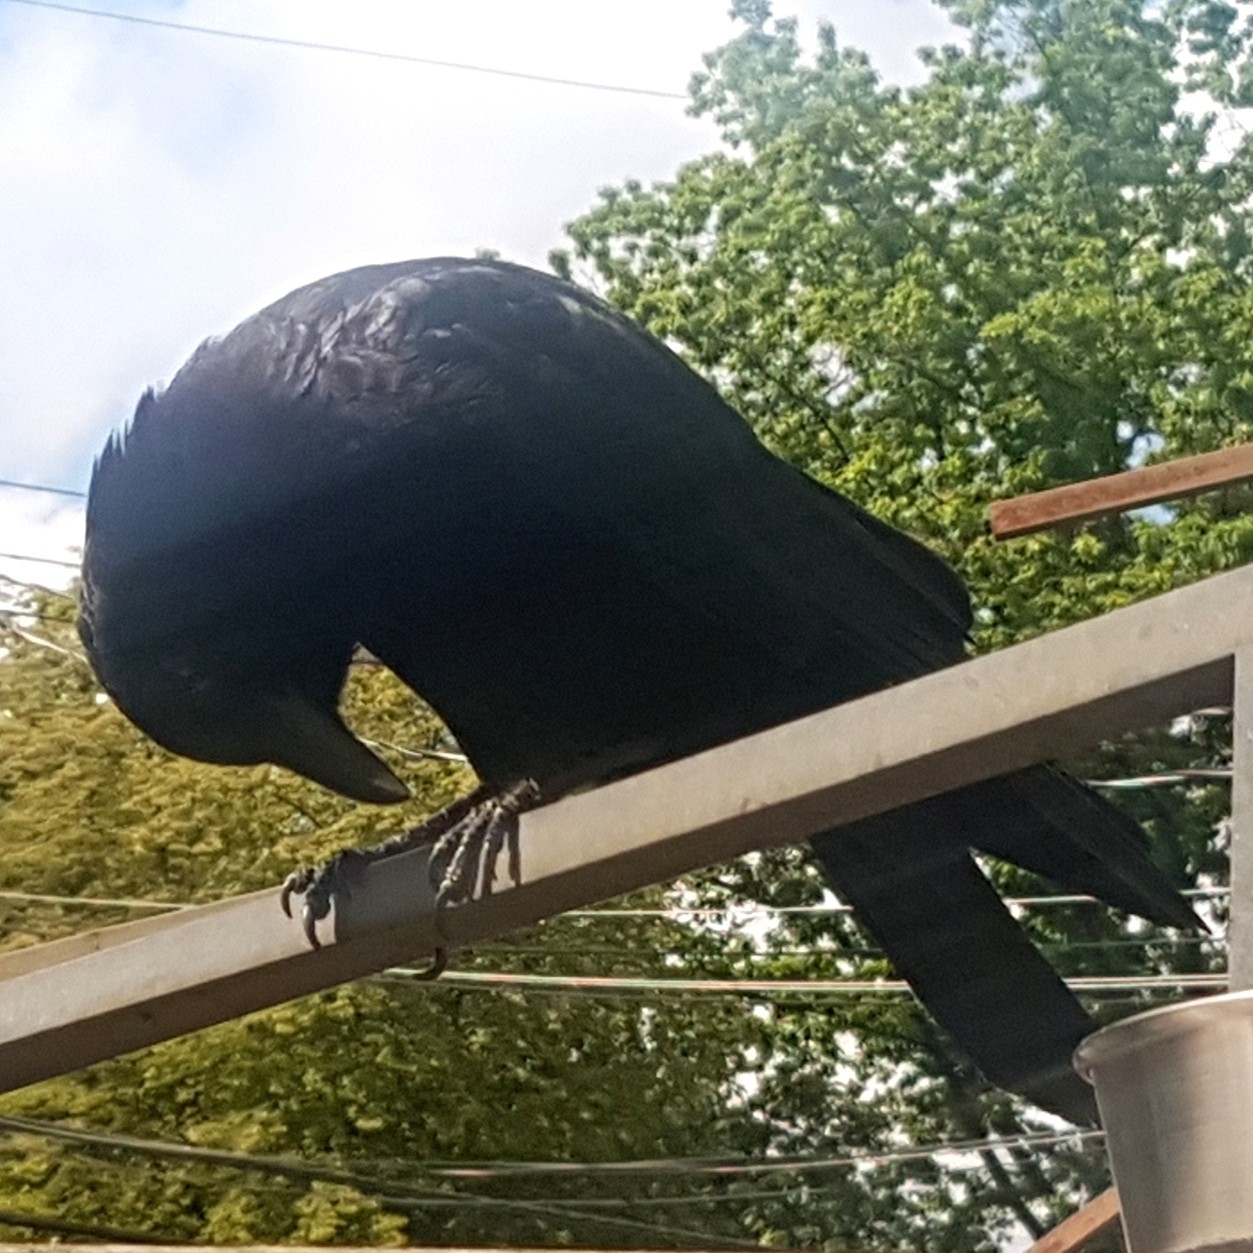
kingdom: Animalia
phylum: Chordata
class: Aves
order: Passeriformes
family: Corvidae
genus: Corvus
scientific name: Corvus brachyrhynchos
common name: American crow
